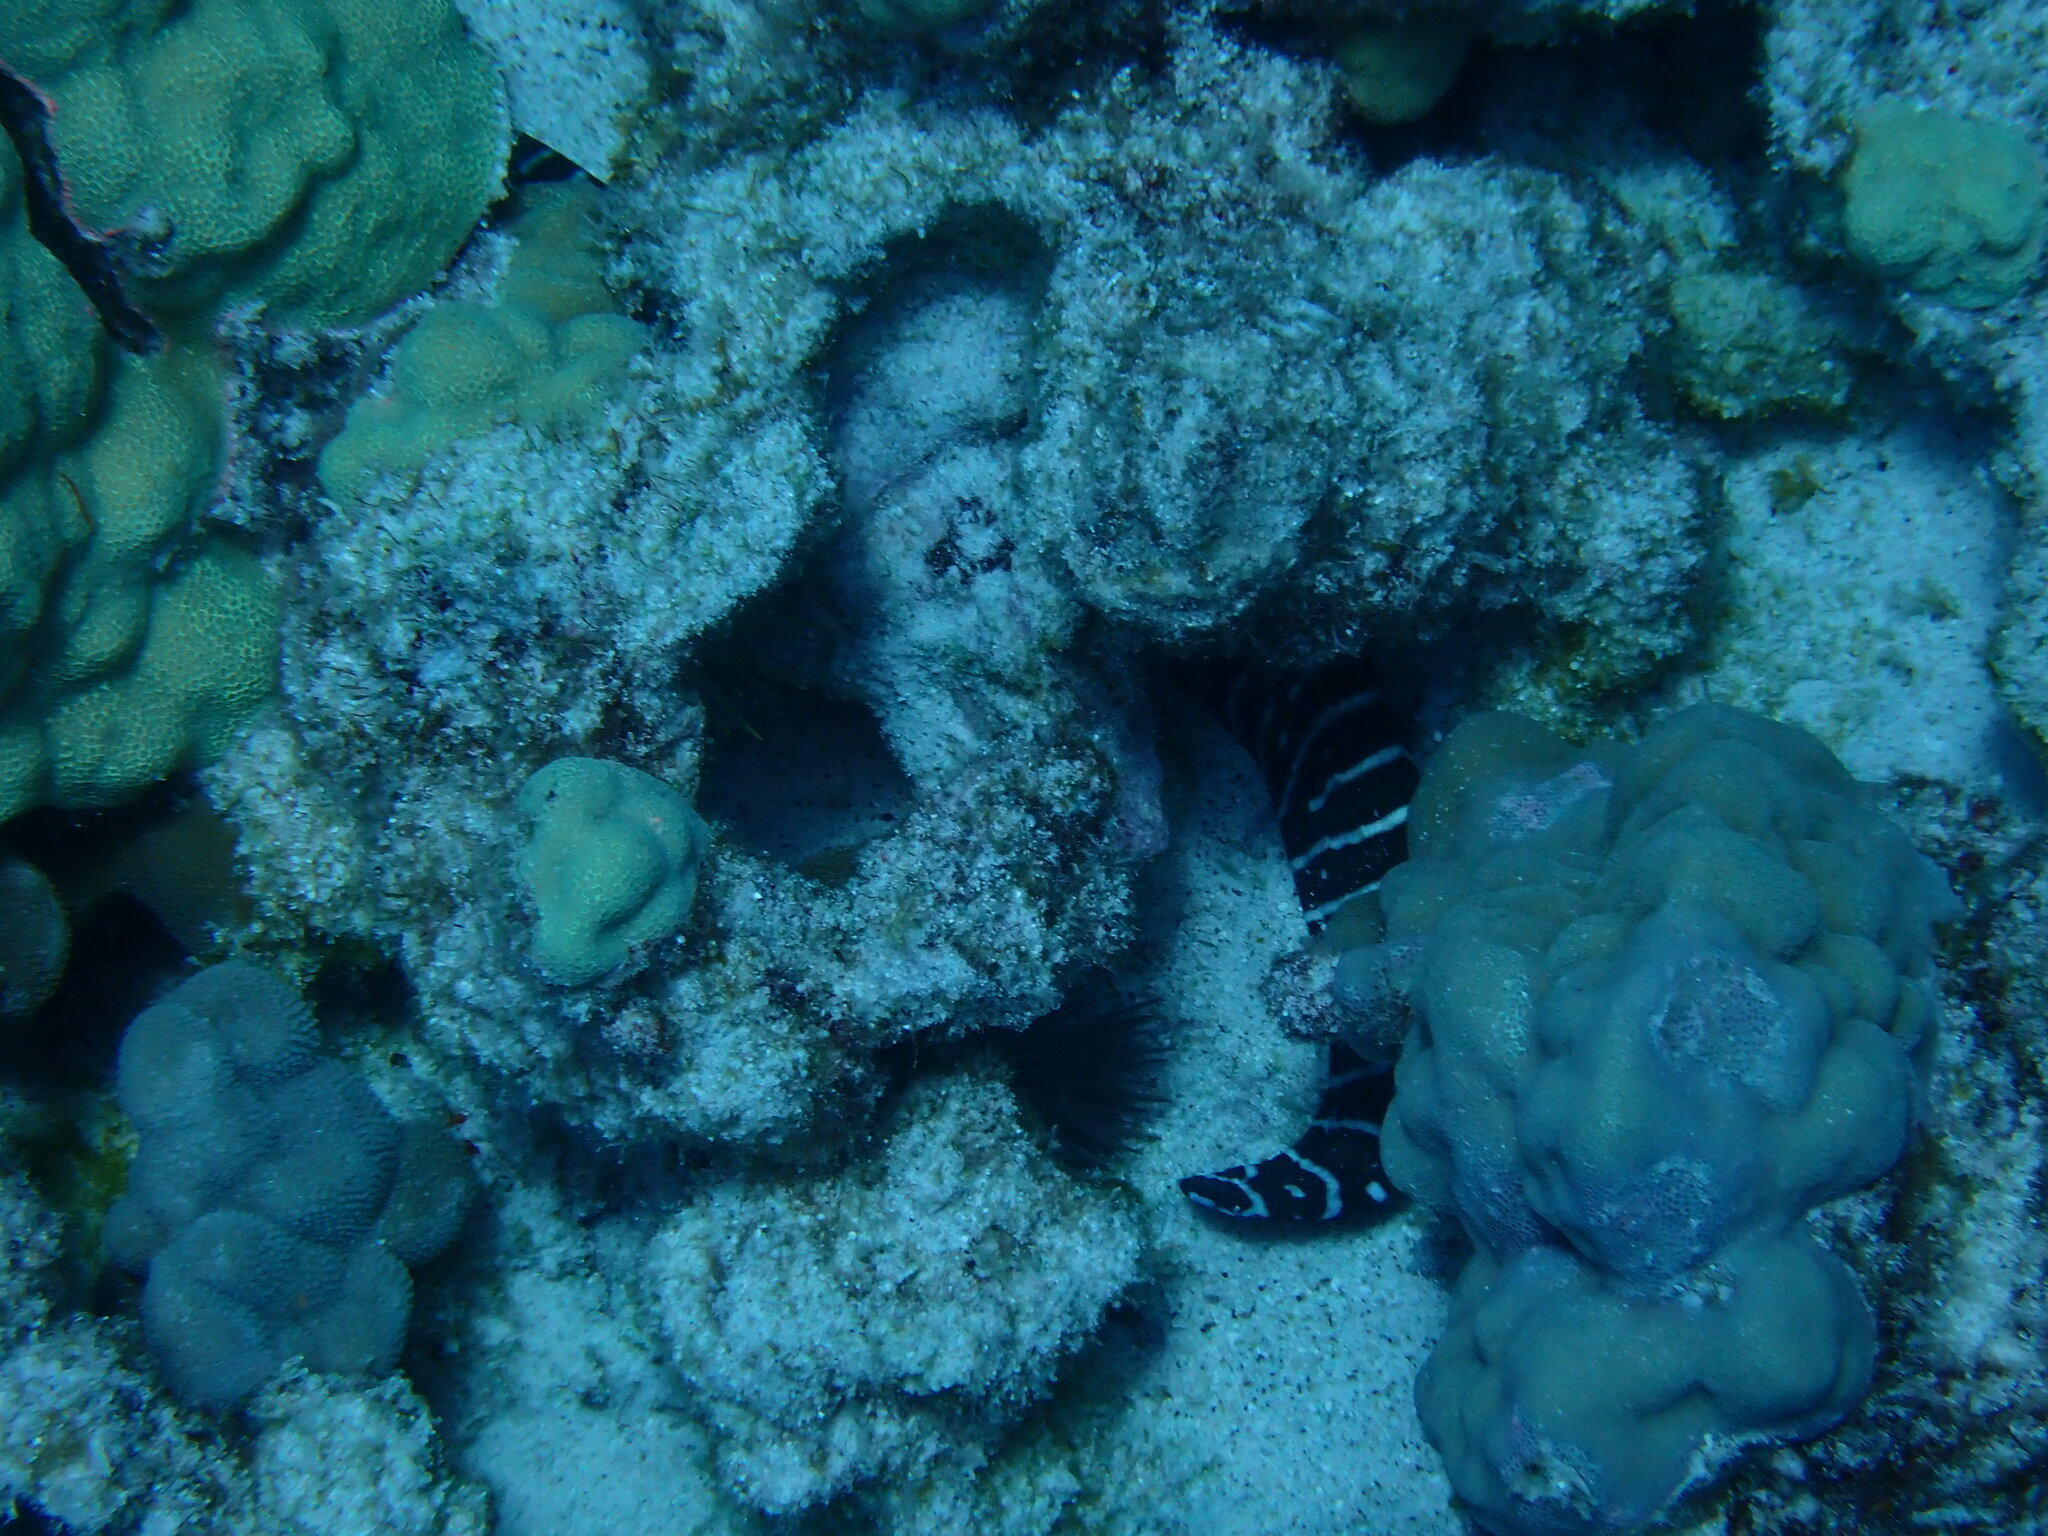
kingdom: Animalia
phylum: Chordata
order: Anguilliformes
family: Muraenidae
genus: Gymnomuraena
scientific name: Gymnomuraena zebra
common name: Zebra moray
